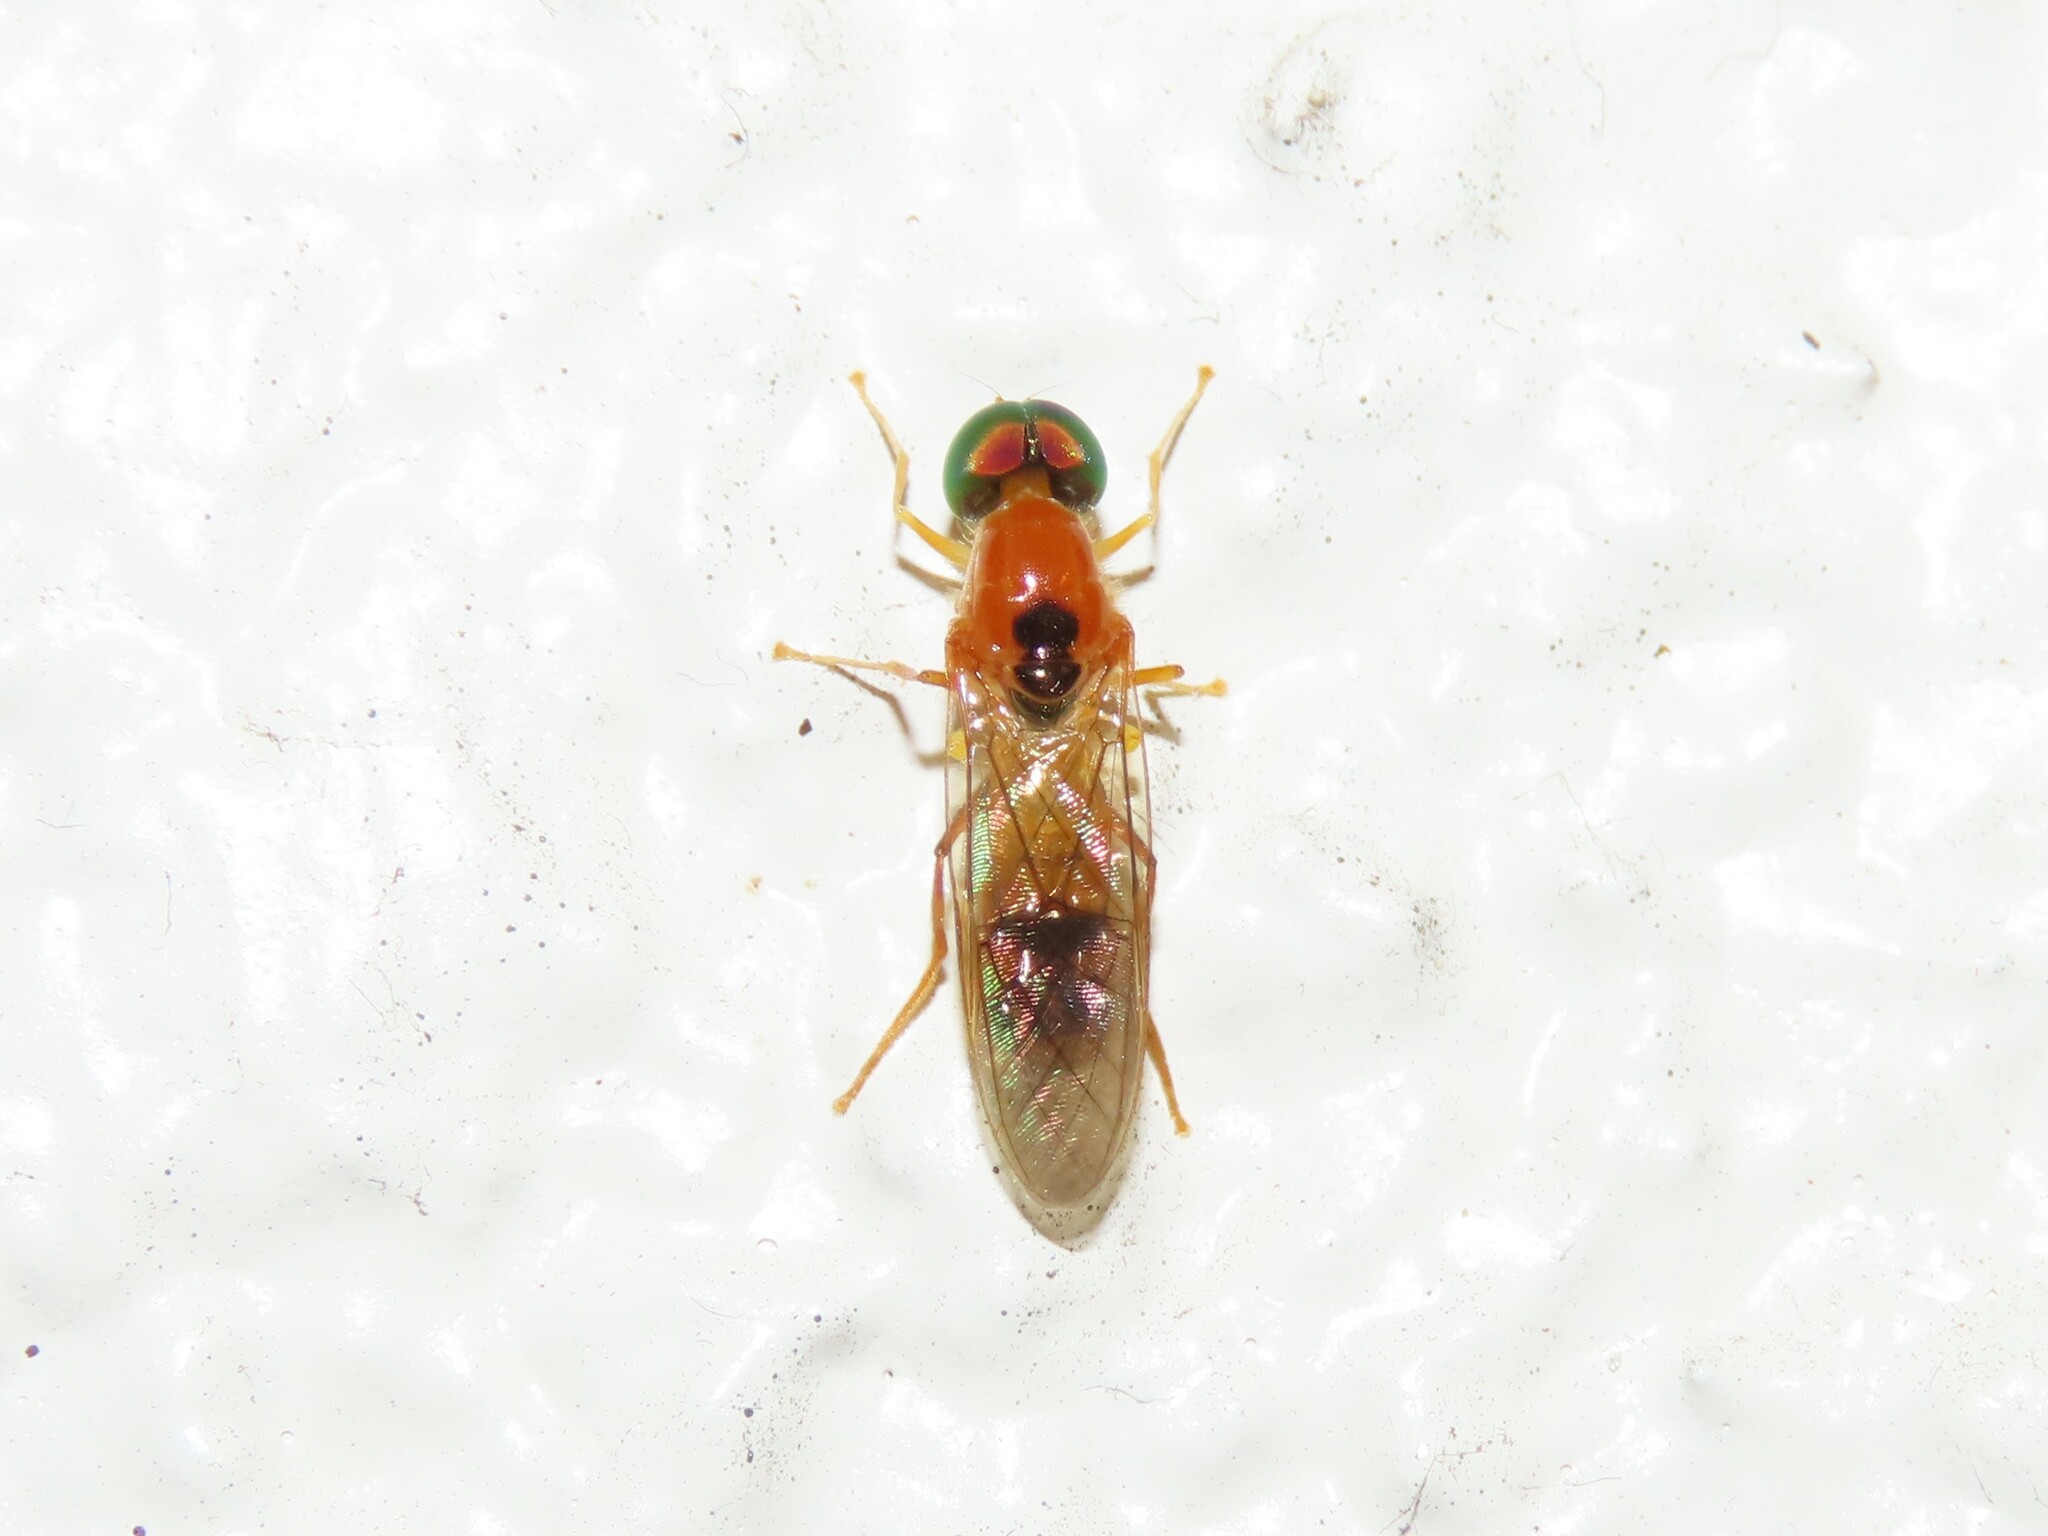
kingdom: Animalia
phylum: Arthropoda
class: Insecta
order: Diptera
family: Stratiomyidae
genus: Sargus
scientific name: Sargus elegans
